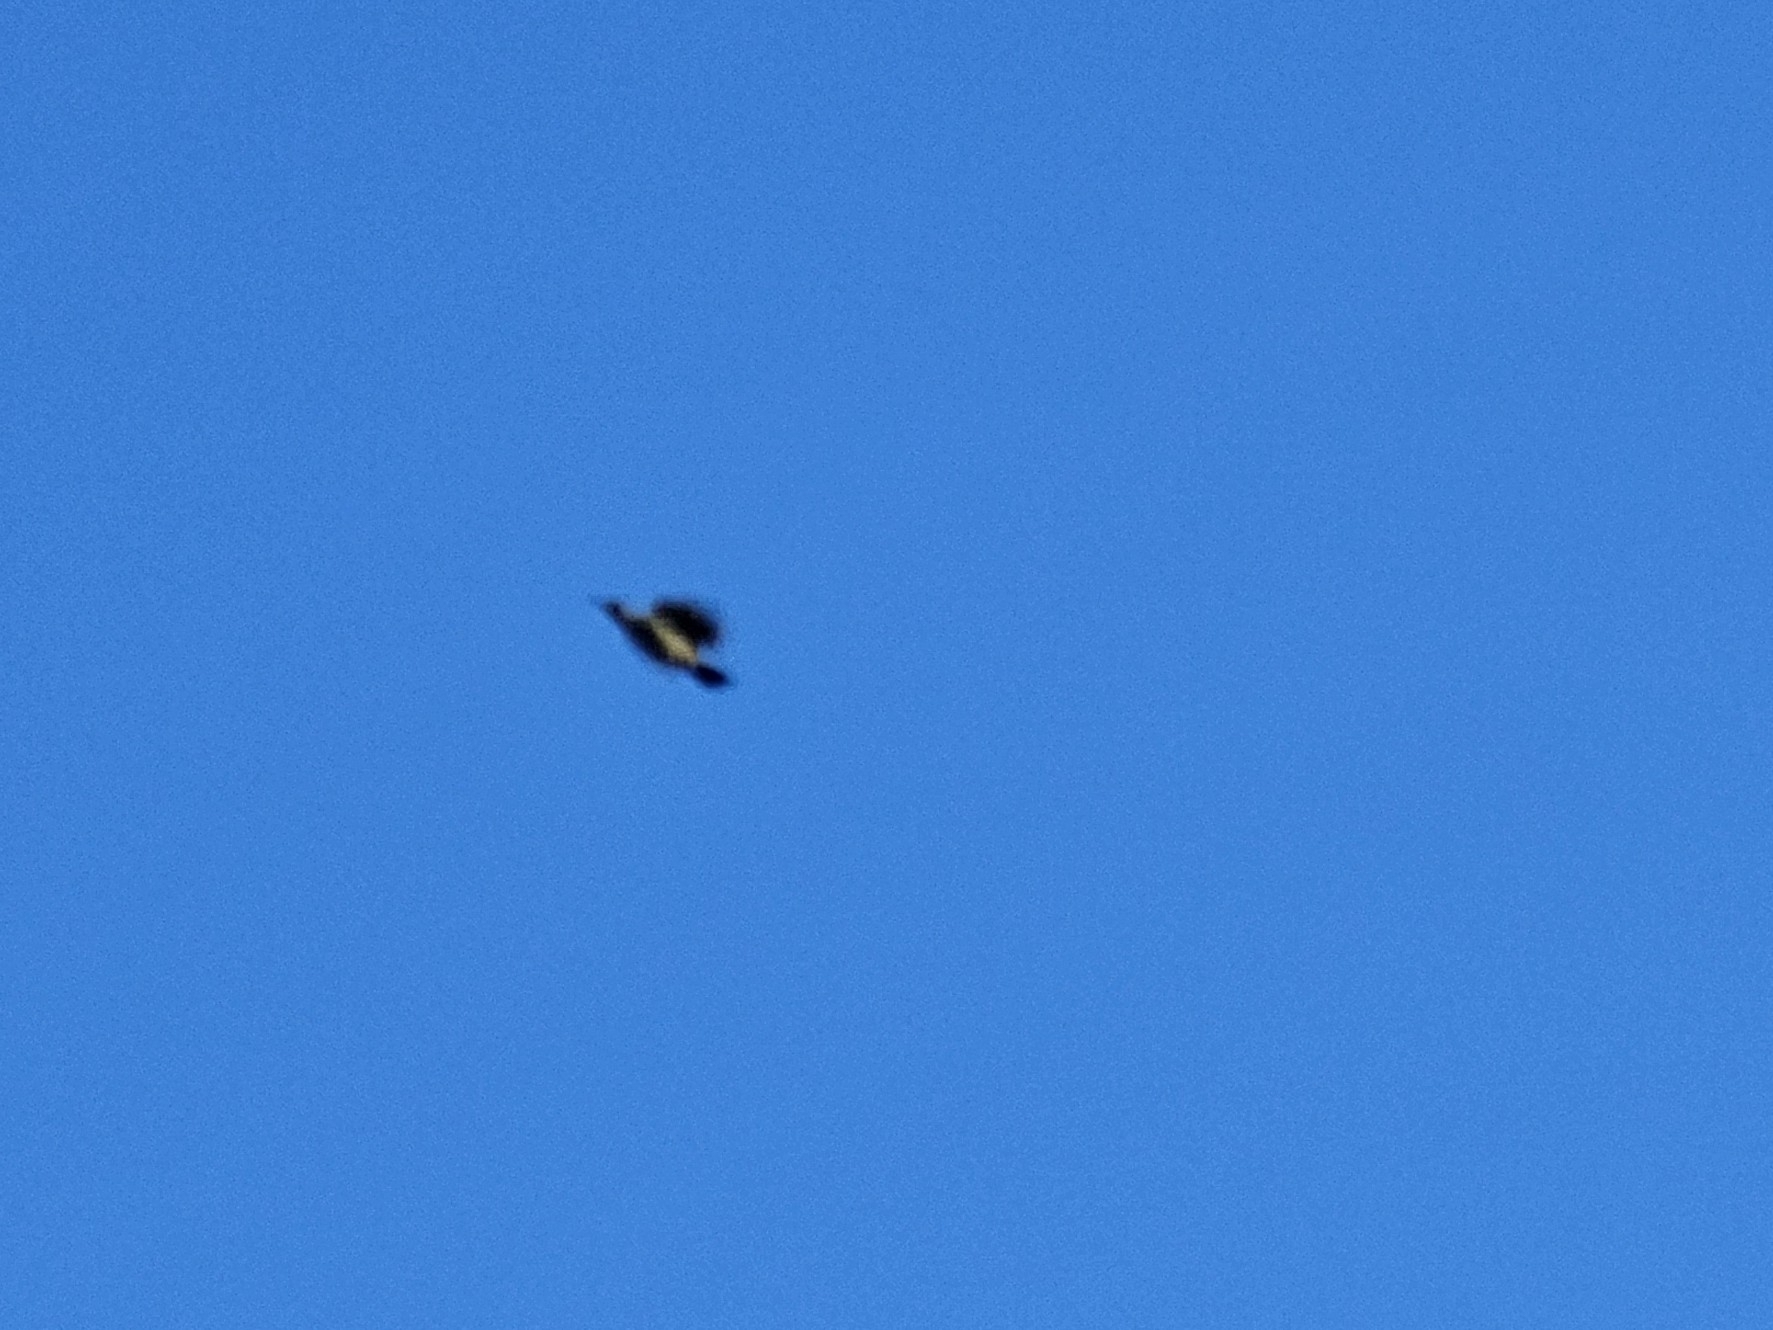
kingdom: Animalia
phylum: Chordata
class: Aves
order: Piciformes
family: Picidae
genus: Picus
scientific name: Picus viridis
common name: European green woodpecker
